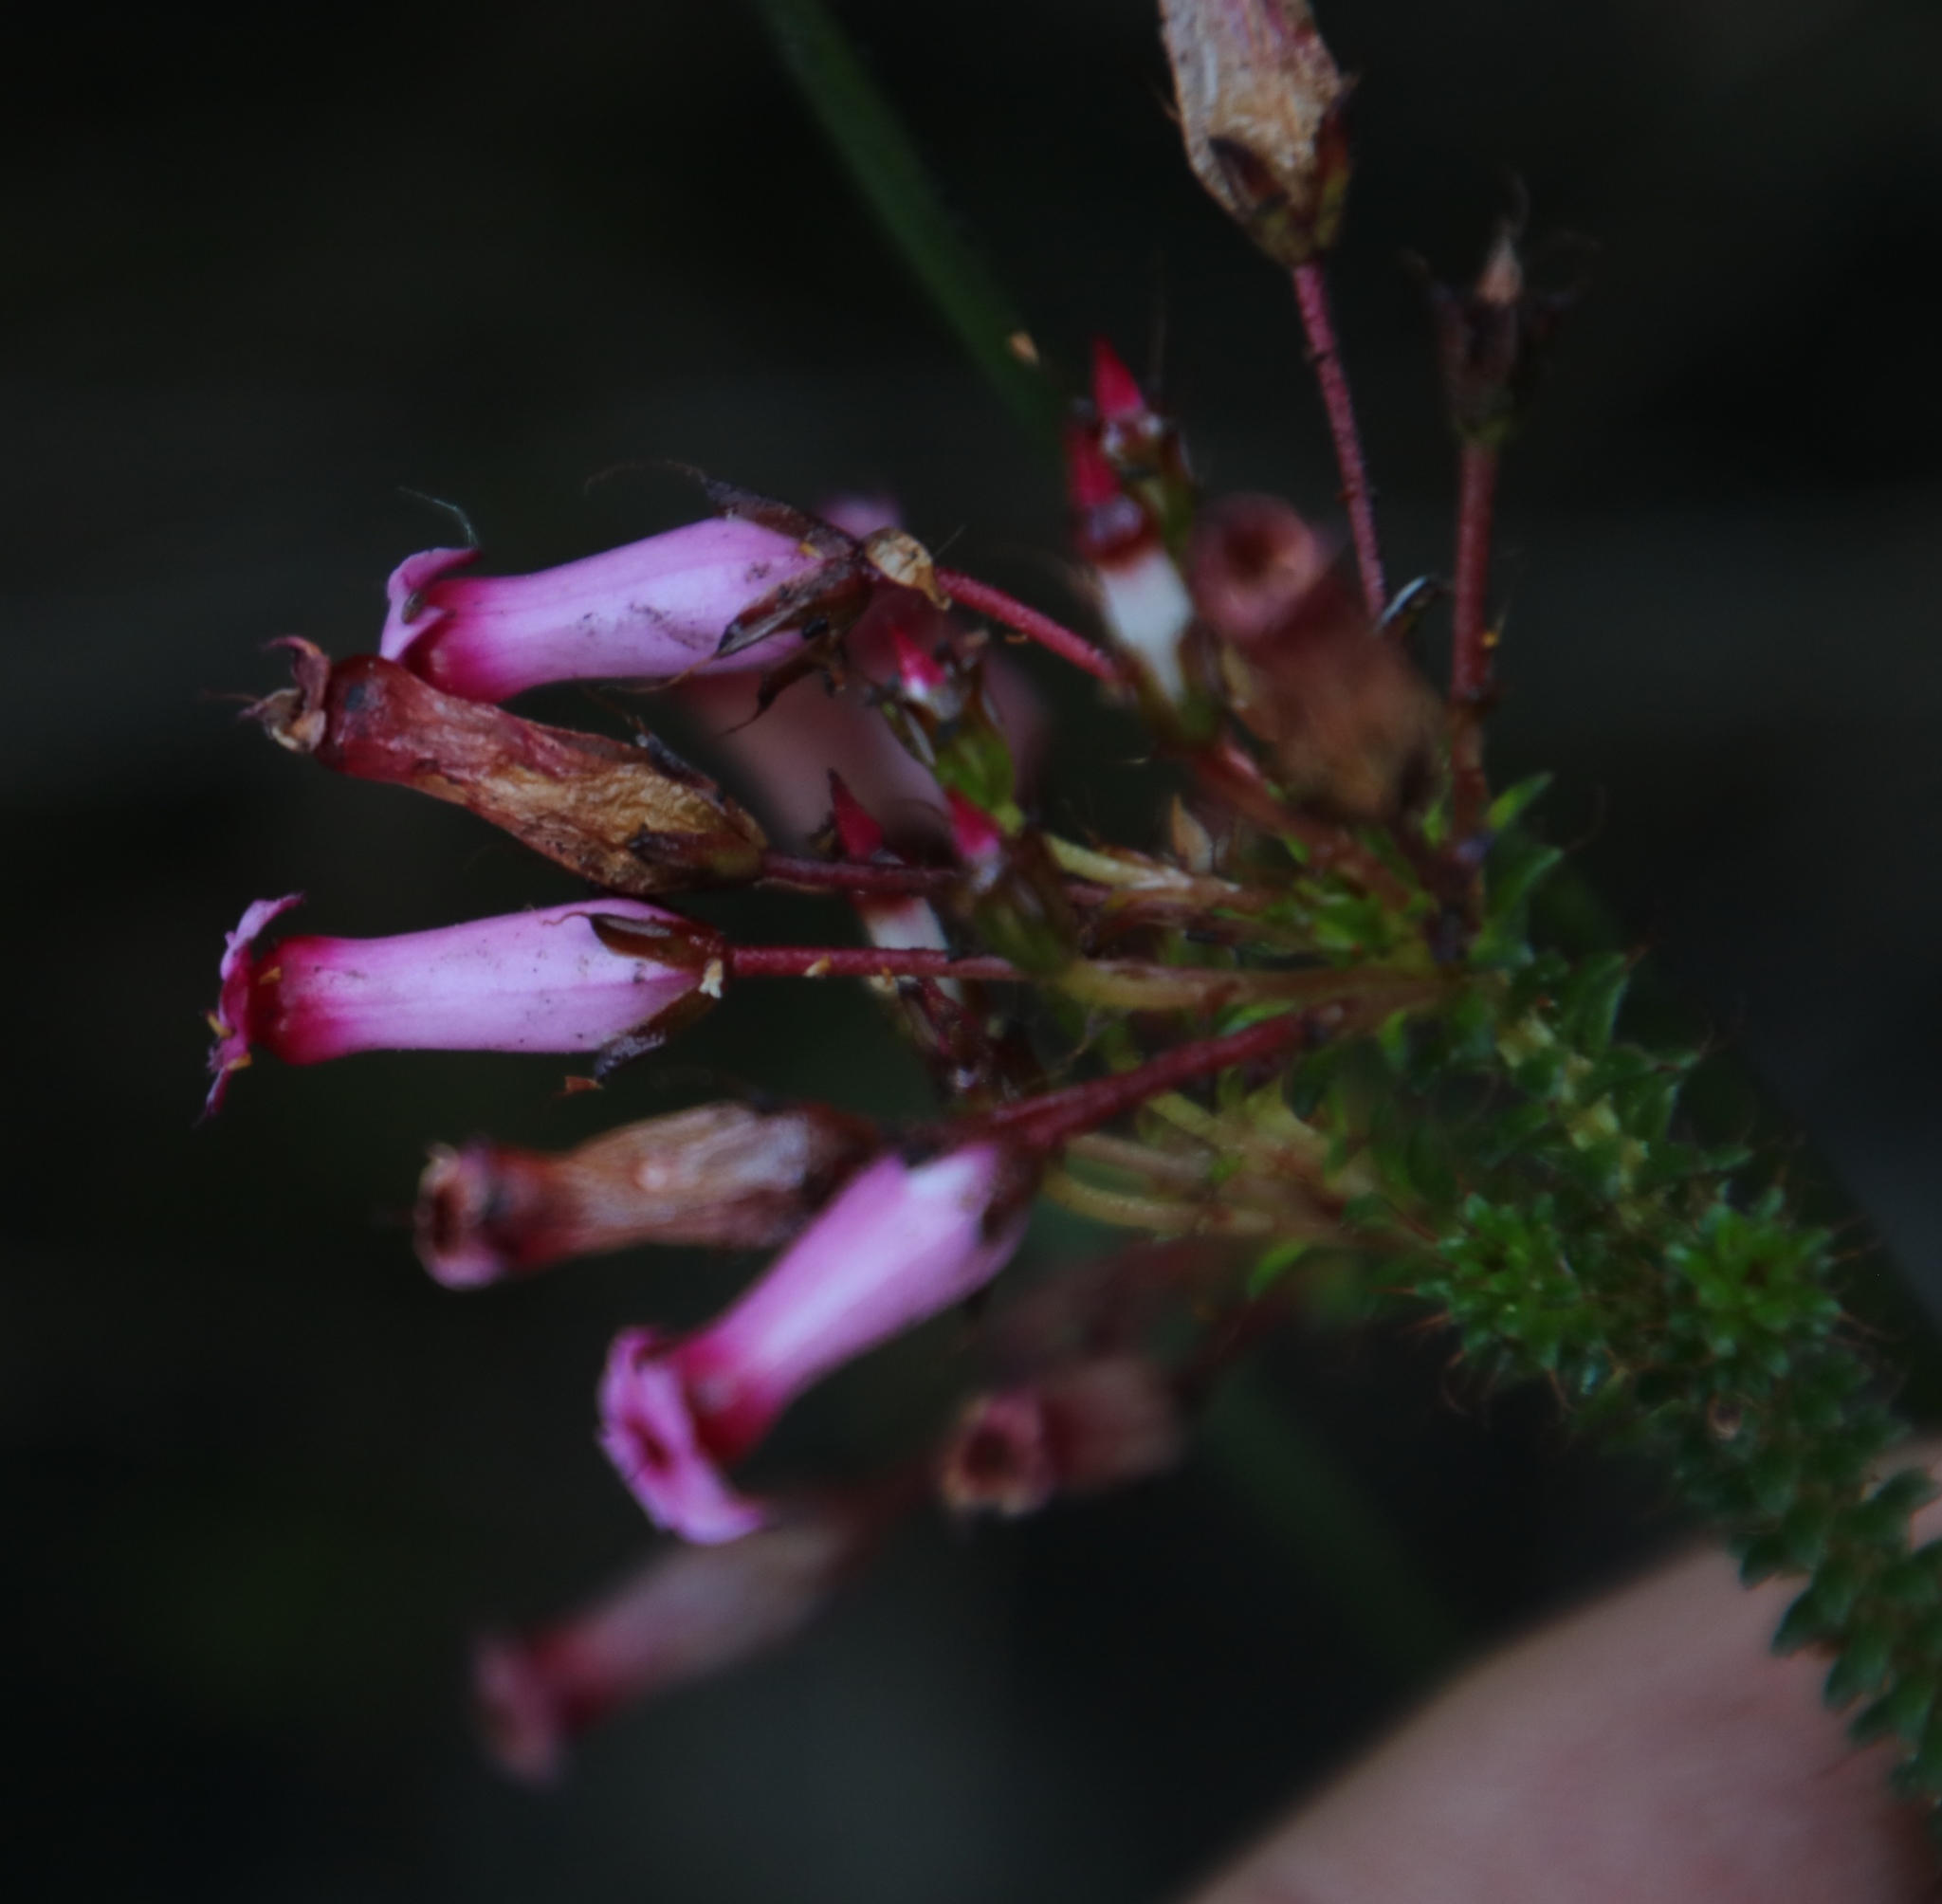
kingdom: Plantae
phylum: Tracheophyta
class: Magnoliopsida
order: Ericales
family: Ericaceae
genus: Erica
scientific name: Erica retorta
